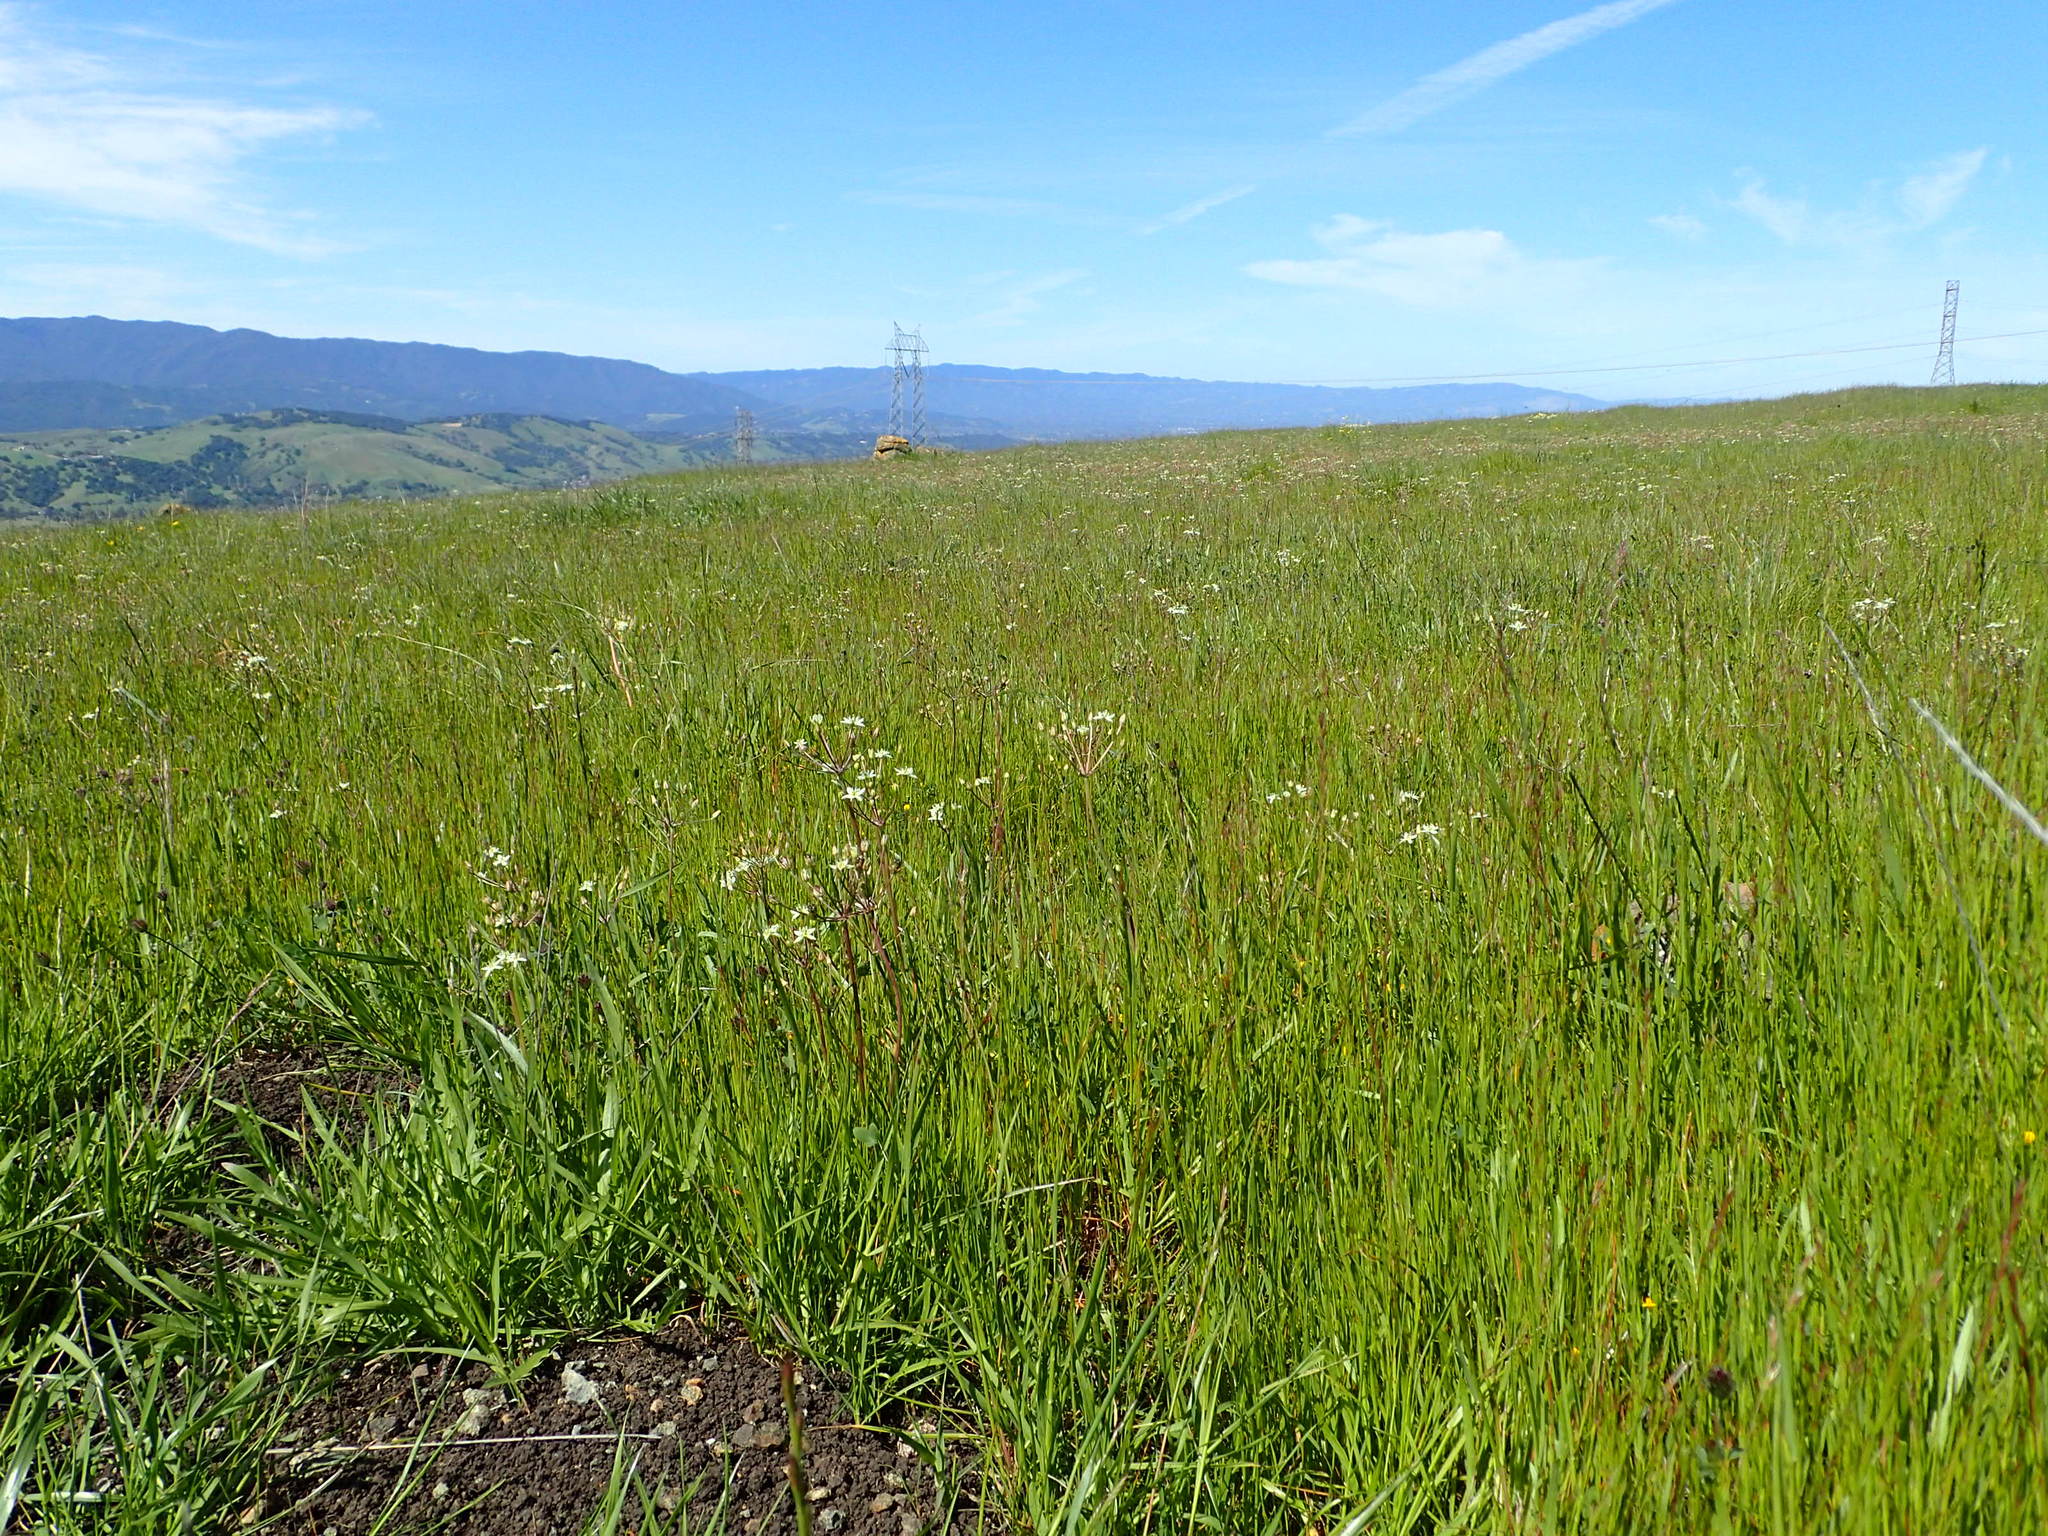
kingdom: Plantae
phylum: Tracheophyta
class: Liliopsida
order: Asparagales
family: Asparagaceae
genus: Muilla
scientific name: Muilla maritima
